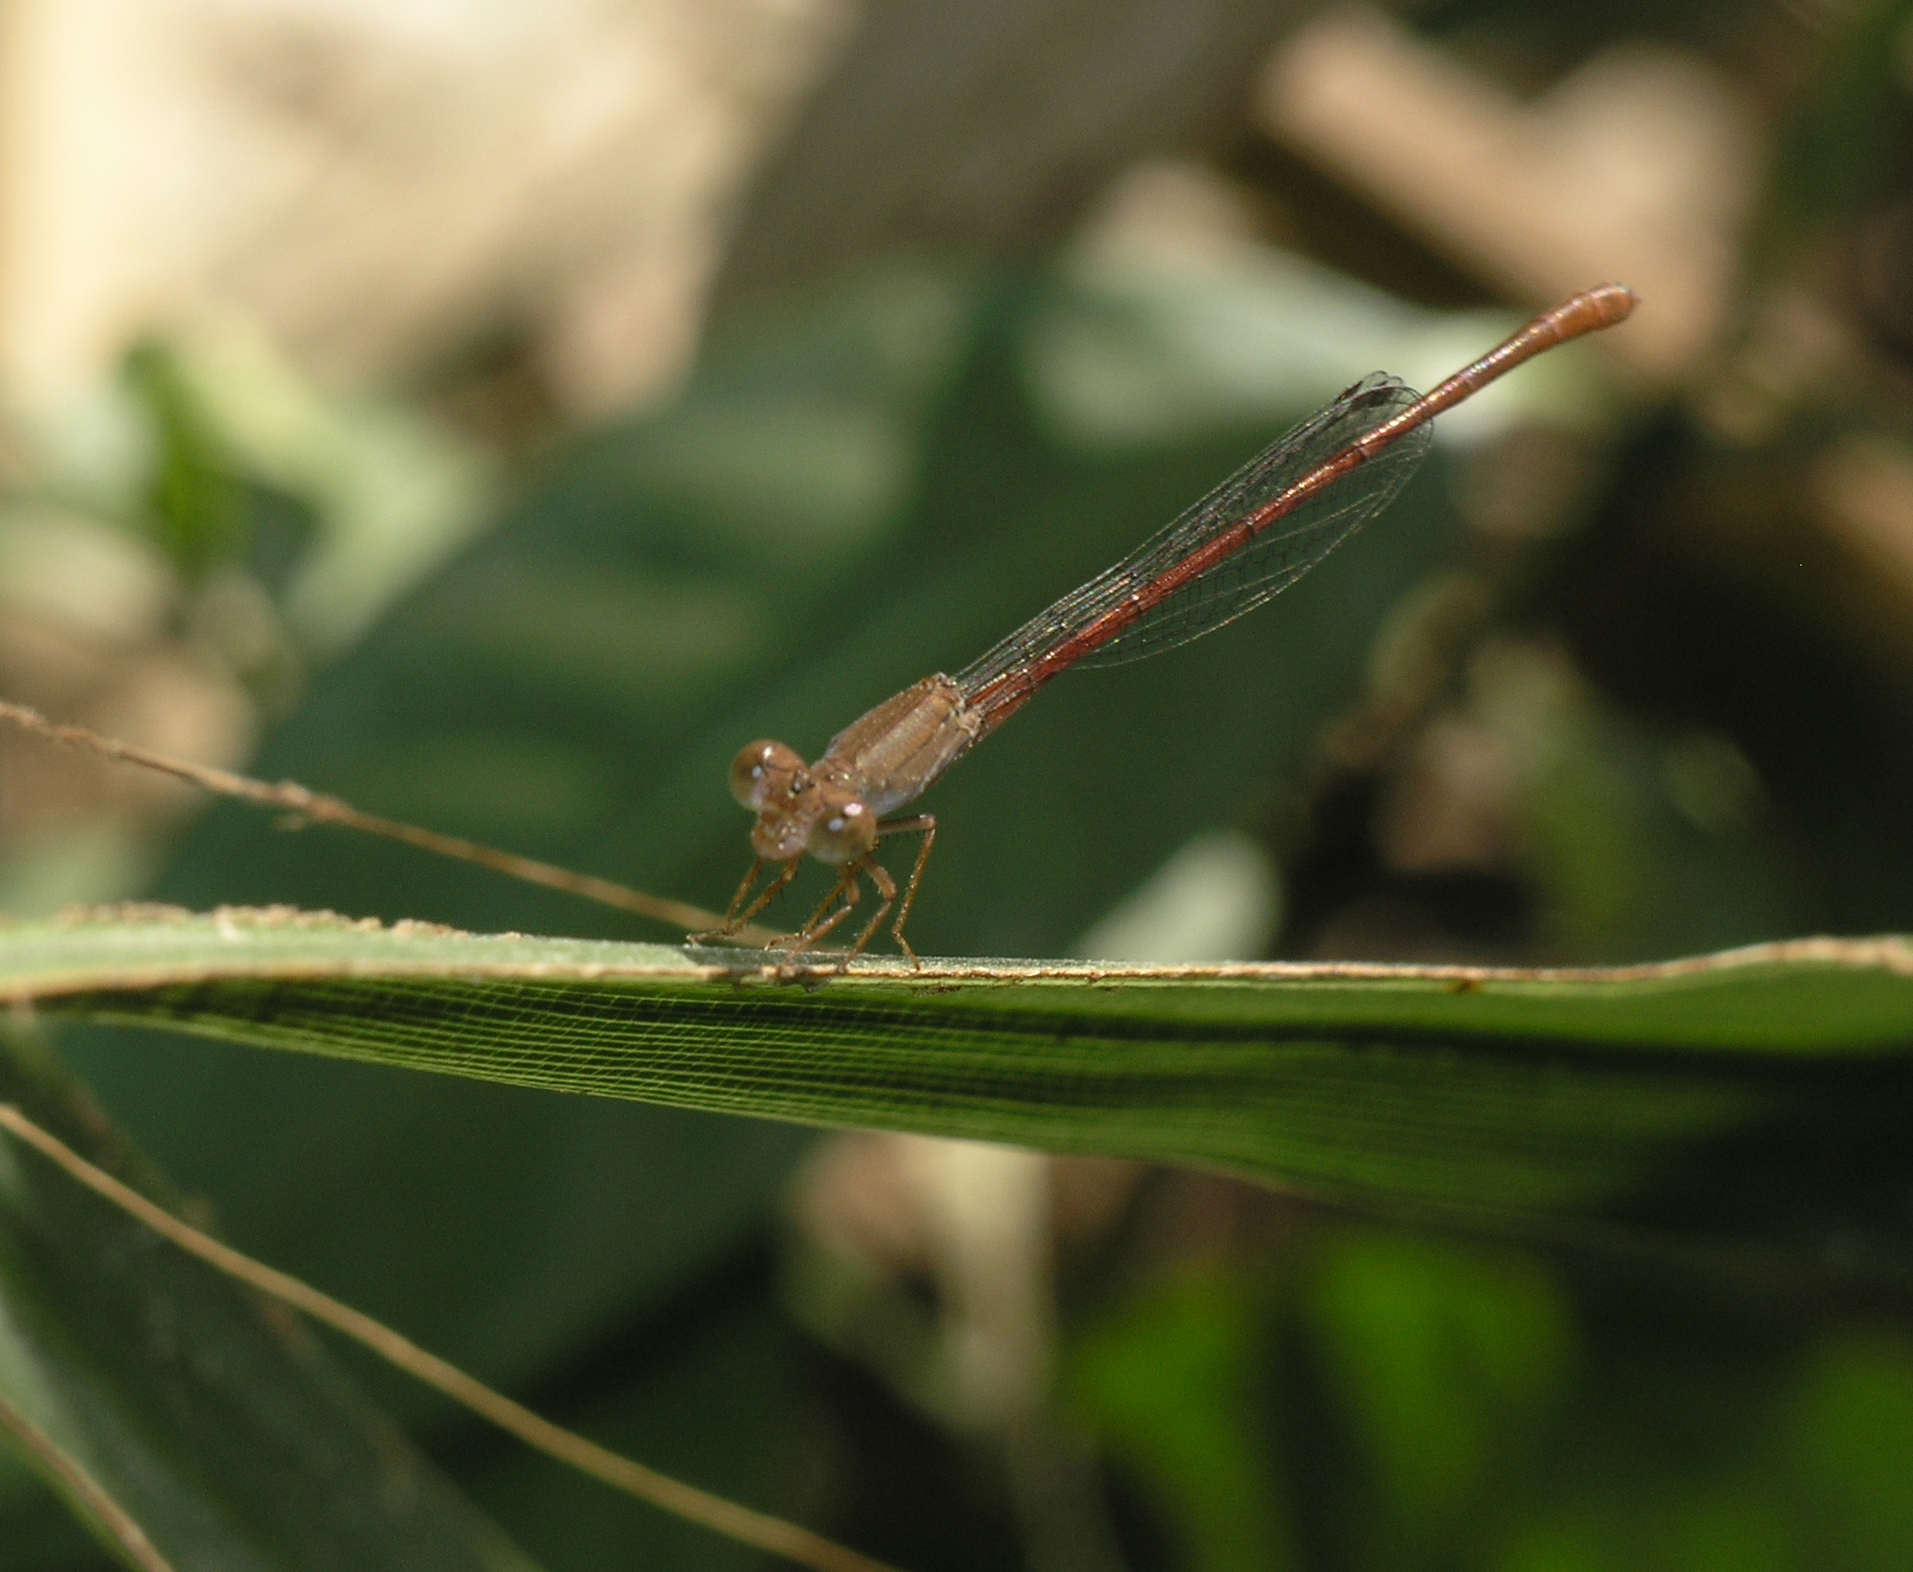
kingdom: Animalia
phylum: Arthropoda
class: Insecta
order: Odonata
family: Coenagrionidae
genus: Ceriagrion
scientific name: Ceriagrion praetermissum
